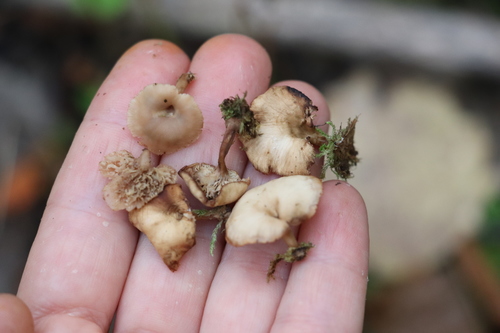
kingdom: Fungi
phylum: Basidiomycota
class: Agaricomycetes
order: Russulales
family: Auriscalpiaceae
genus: Lentinellus
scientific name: Lentinellus micheneri
